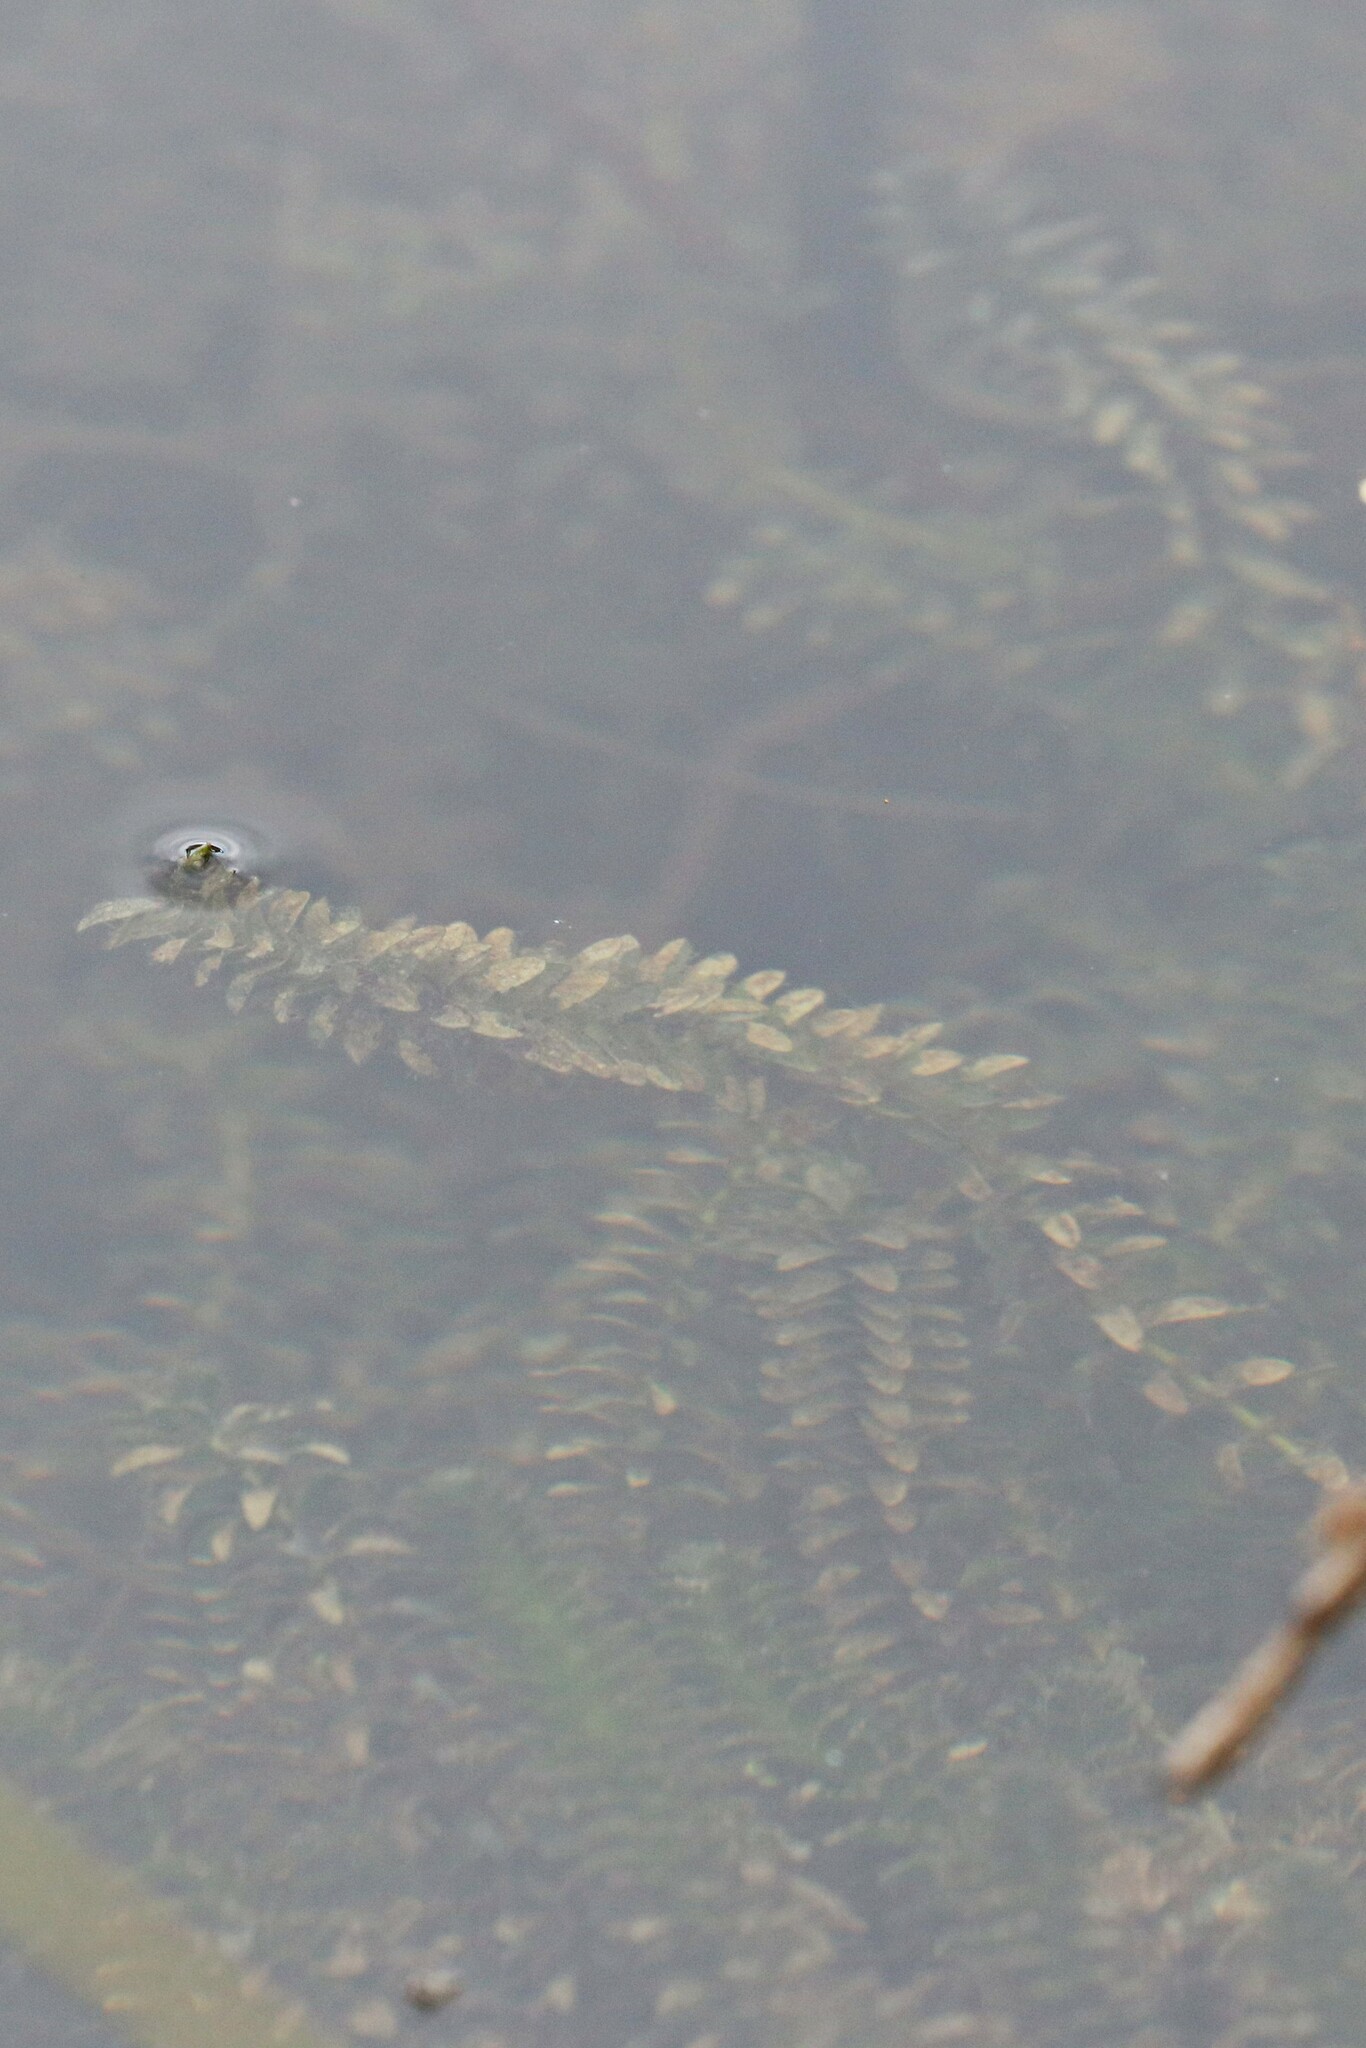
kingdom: Plantae
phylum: Tracheophyta
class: Liliopsida
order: Alismatales
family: Hydrocharitaceae
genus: Elodea
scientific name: Elodea canadensis
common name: Canadian waterweed
